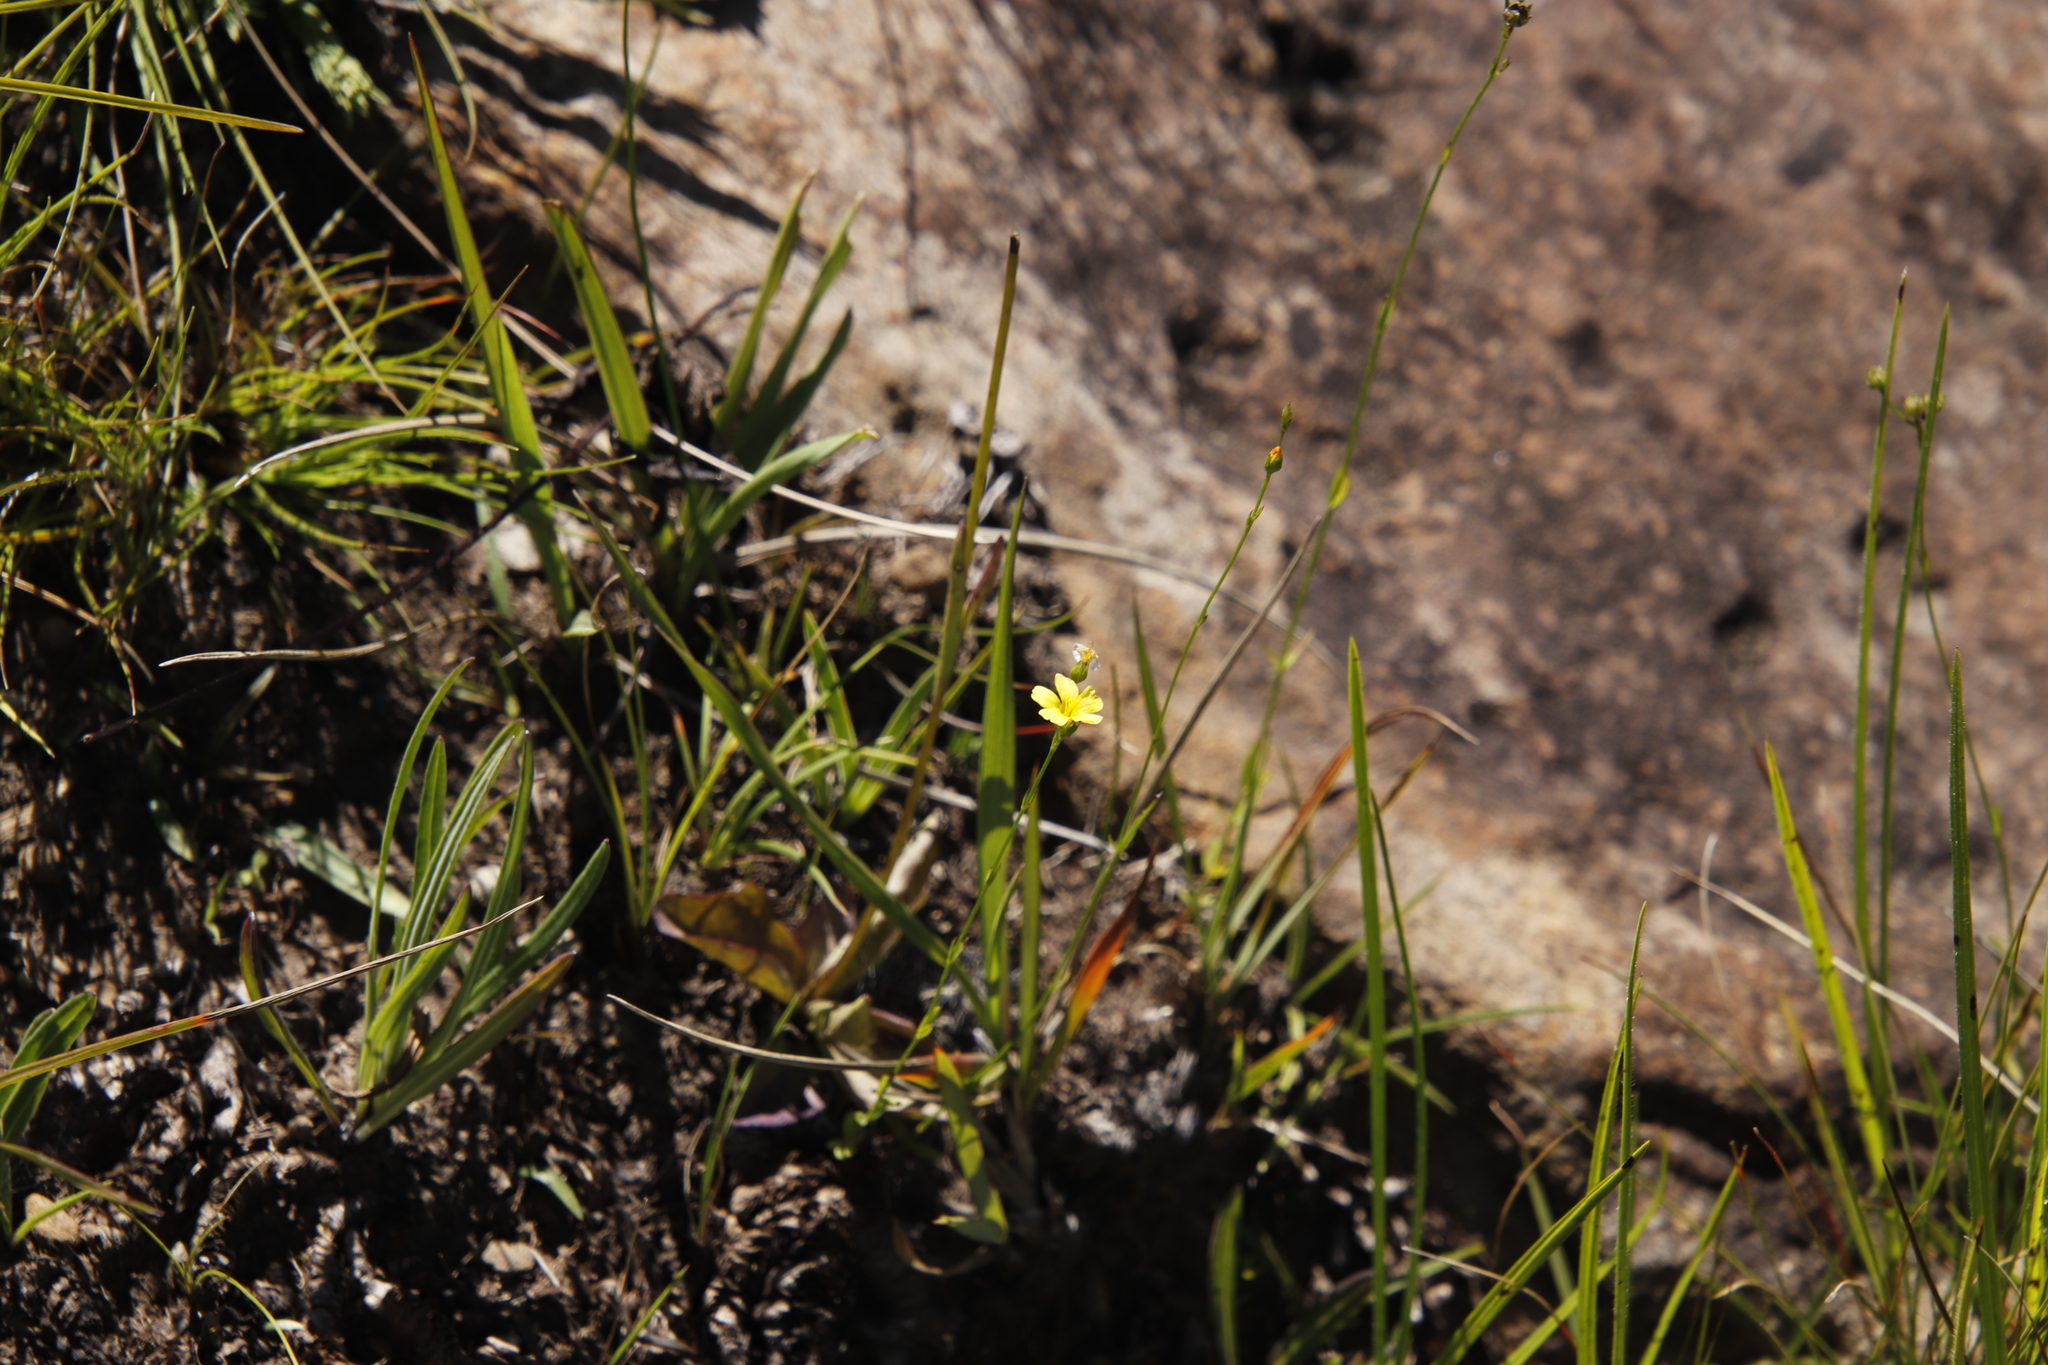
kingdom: Plantae
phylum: Tracheophyta
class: Magnoliopsida
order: Malpighiales
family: Linaceae
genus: Linum
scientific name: Linum thunbergii
